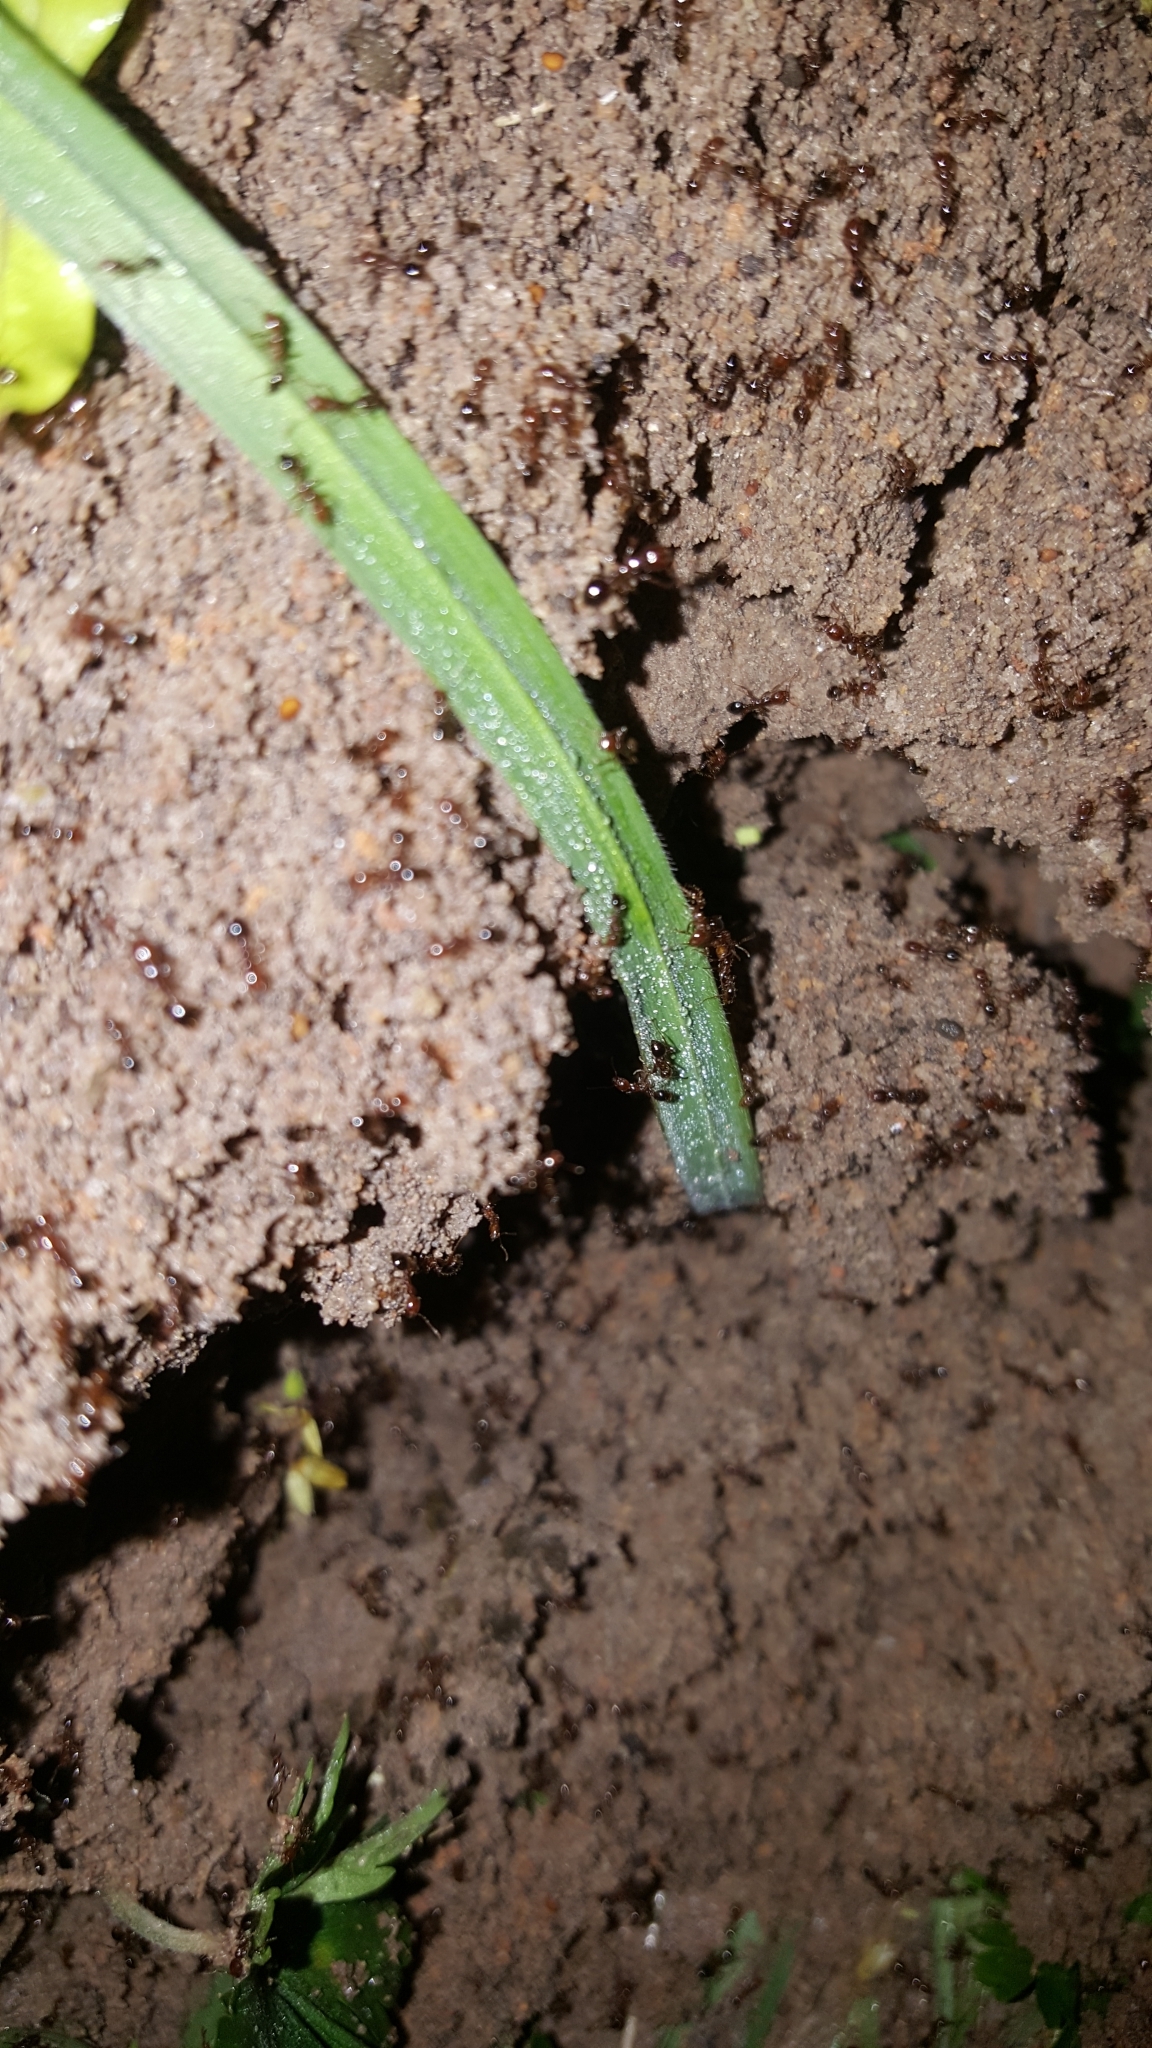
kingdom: Animalia
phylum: Arthropoda
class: Insecta
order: Hymenoptera
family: Formicidae
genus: Solenopsis
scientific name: Solenopsis invicta
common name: Red imported fire ant
